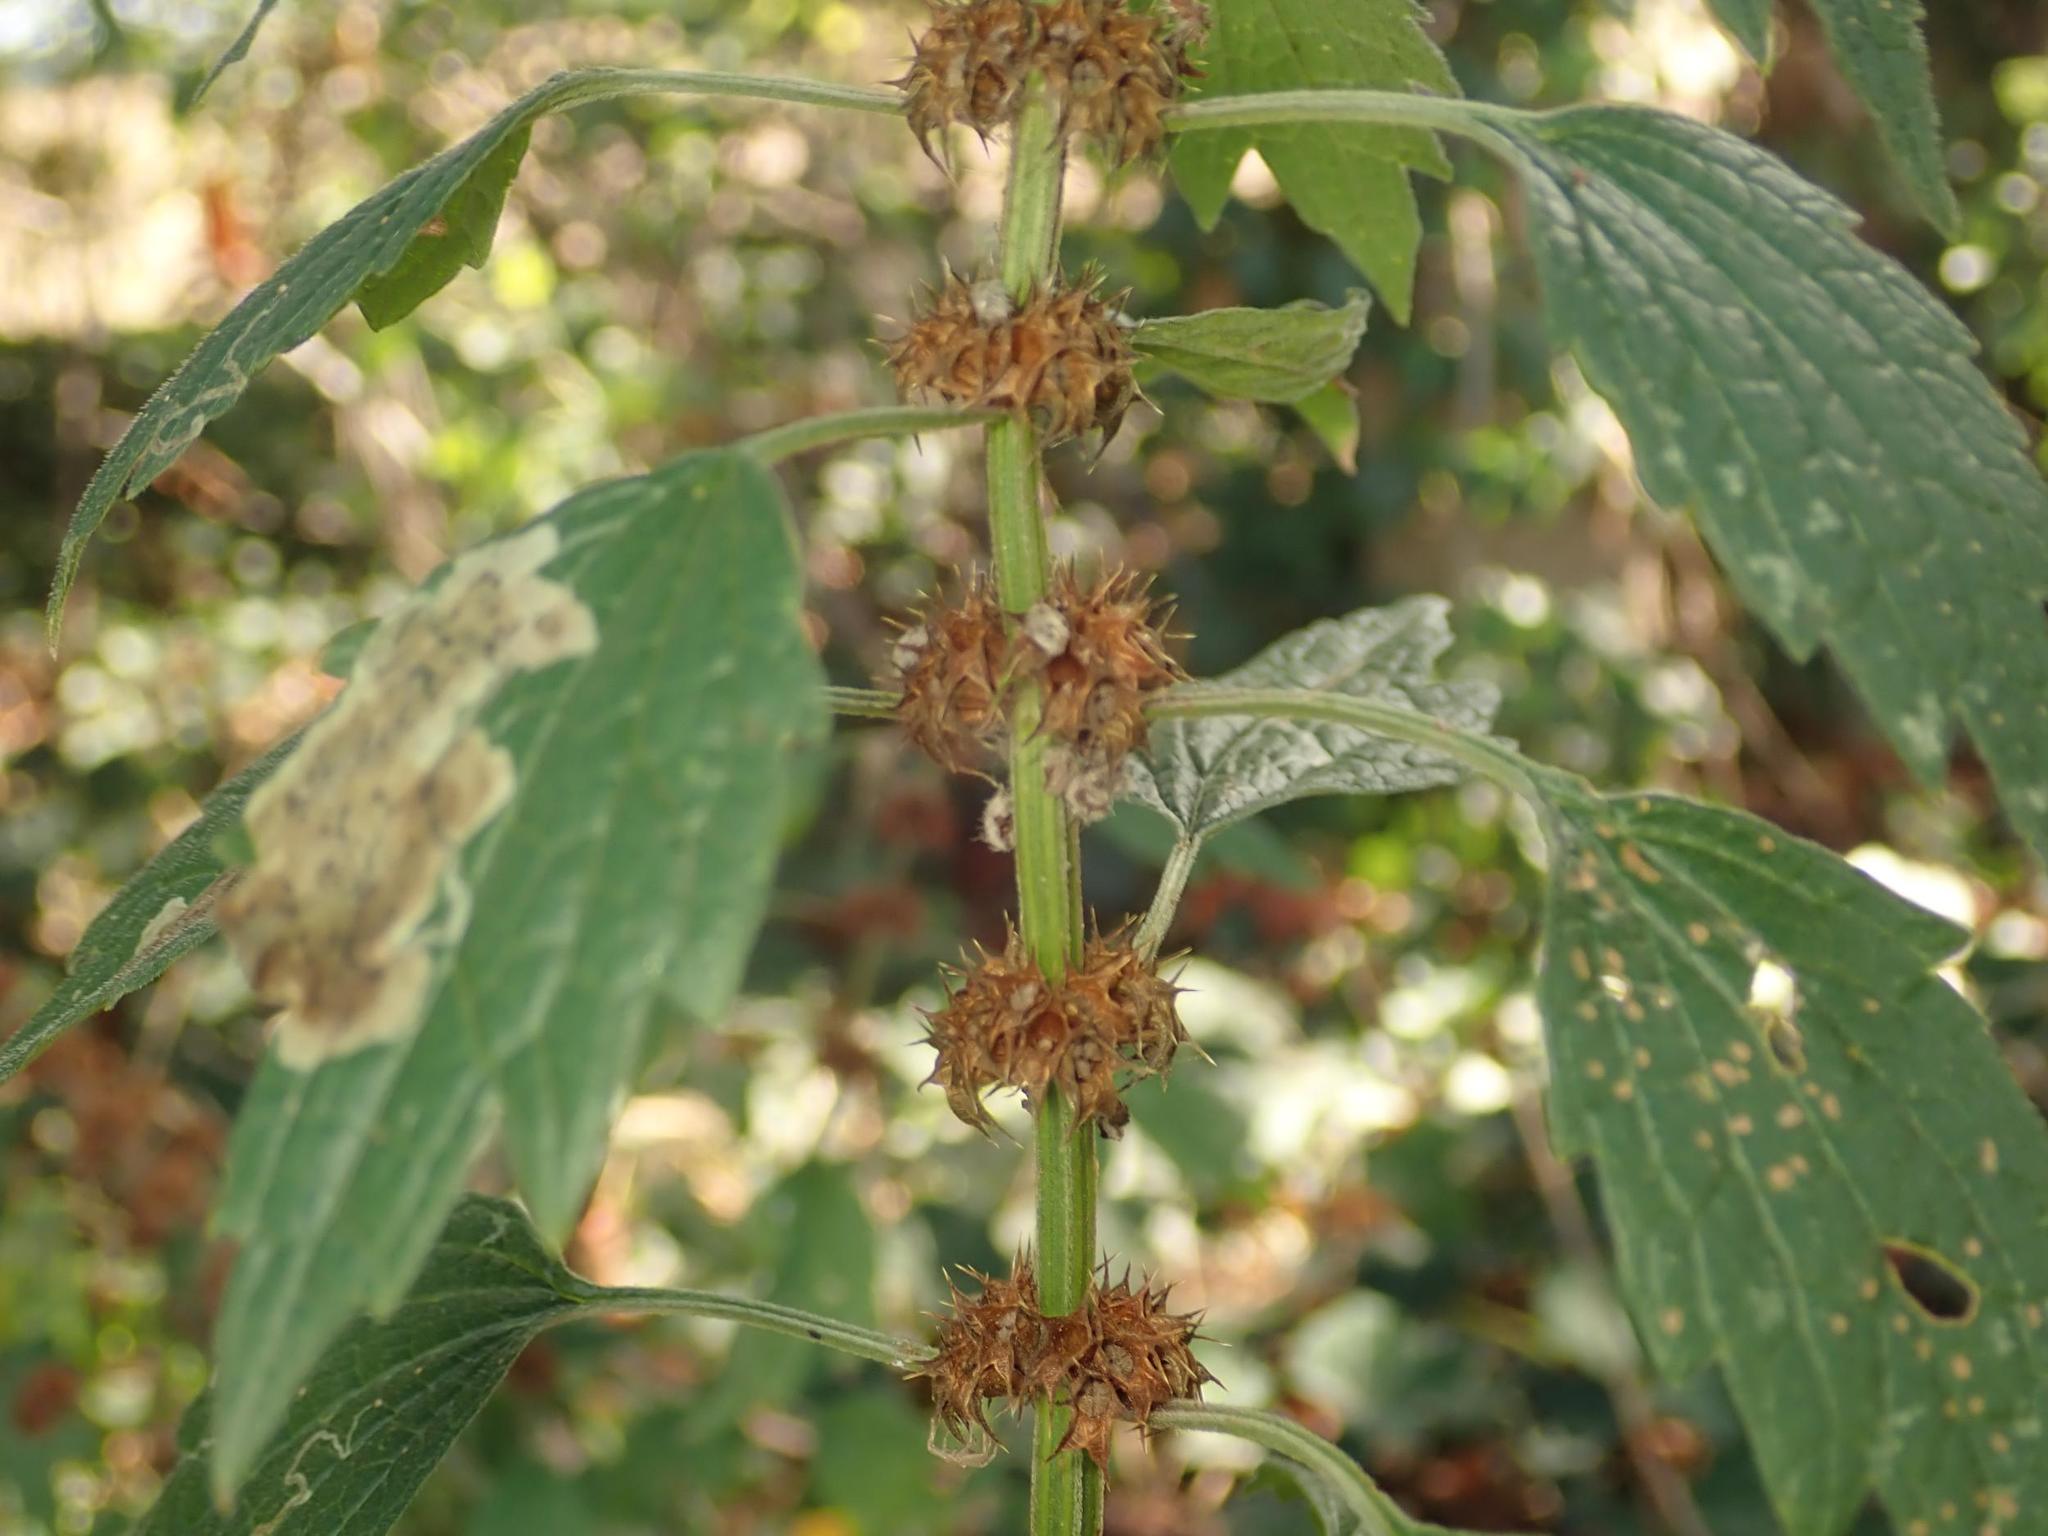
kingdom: Plantae
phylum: Tracheophyta
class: Magnoliopsida
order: Lamiales
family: Lamiaceae
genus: Leonurus
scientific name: Leonurus cardiaca
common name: Motherwort
